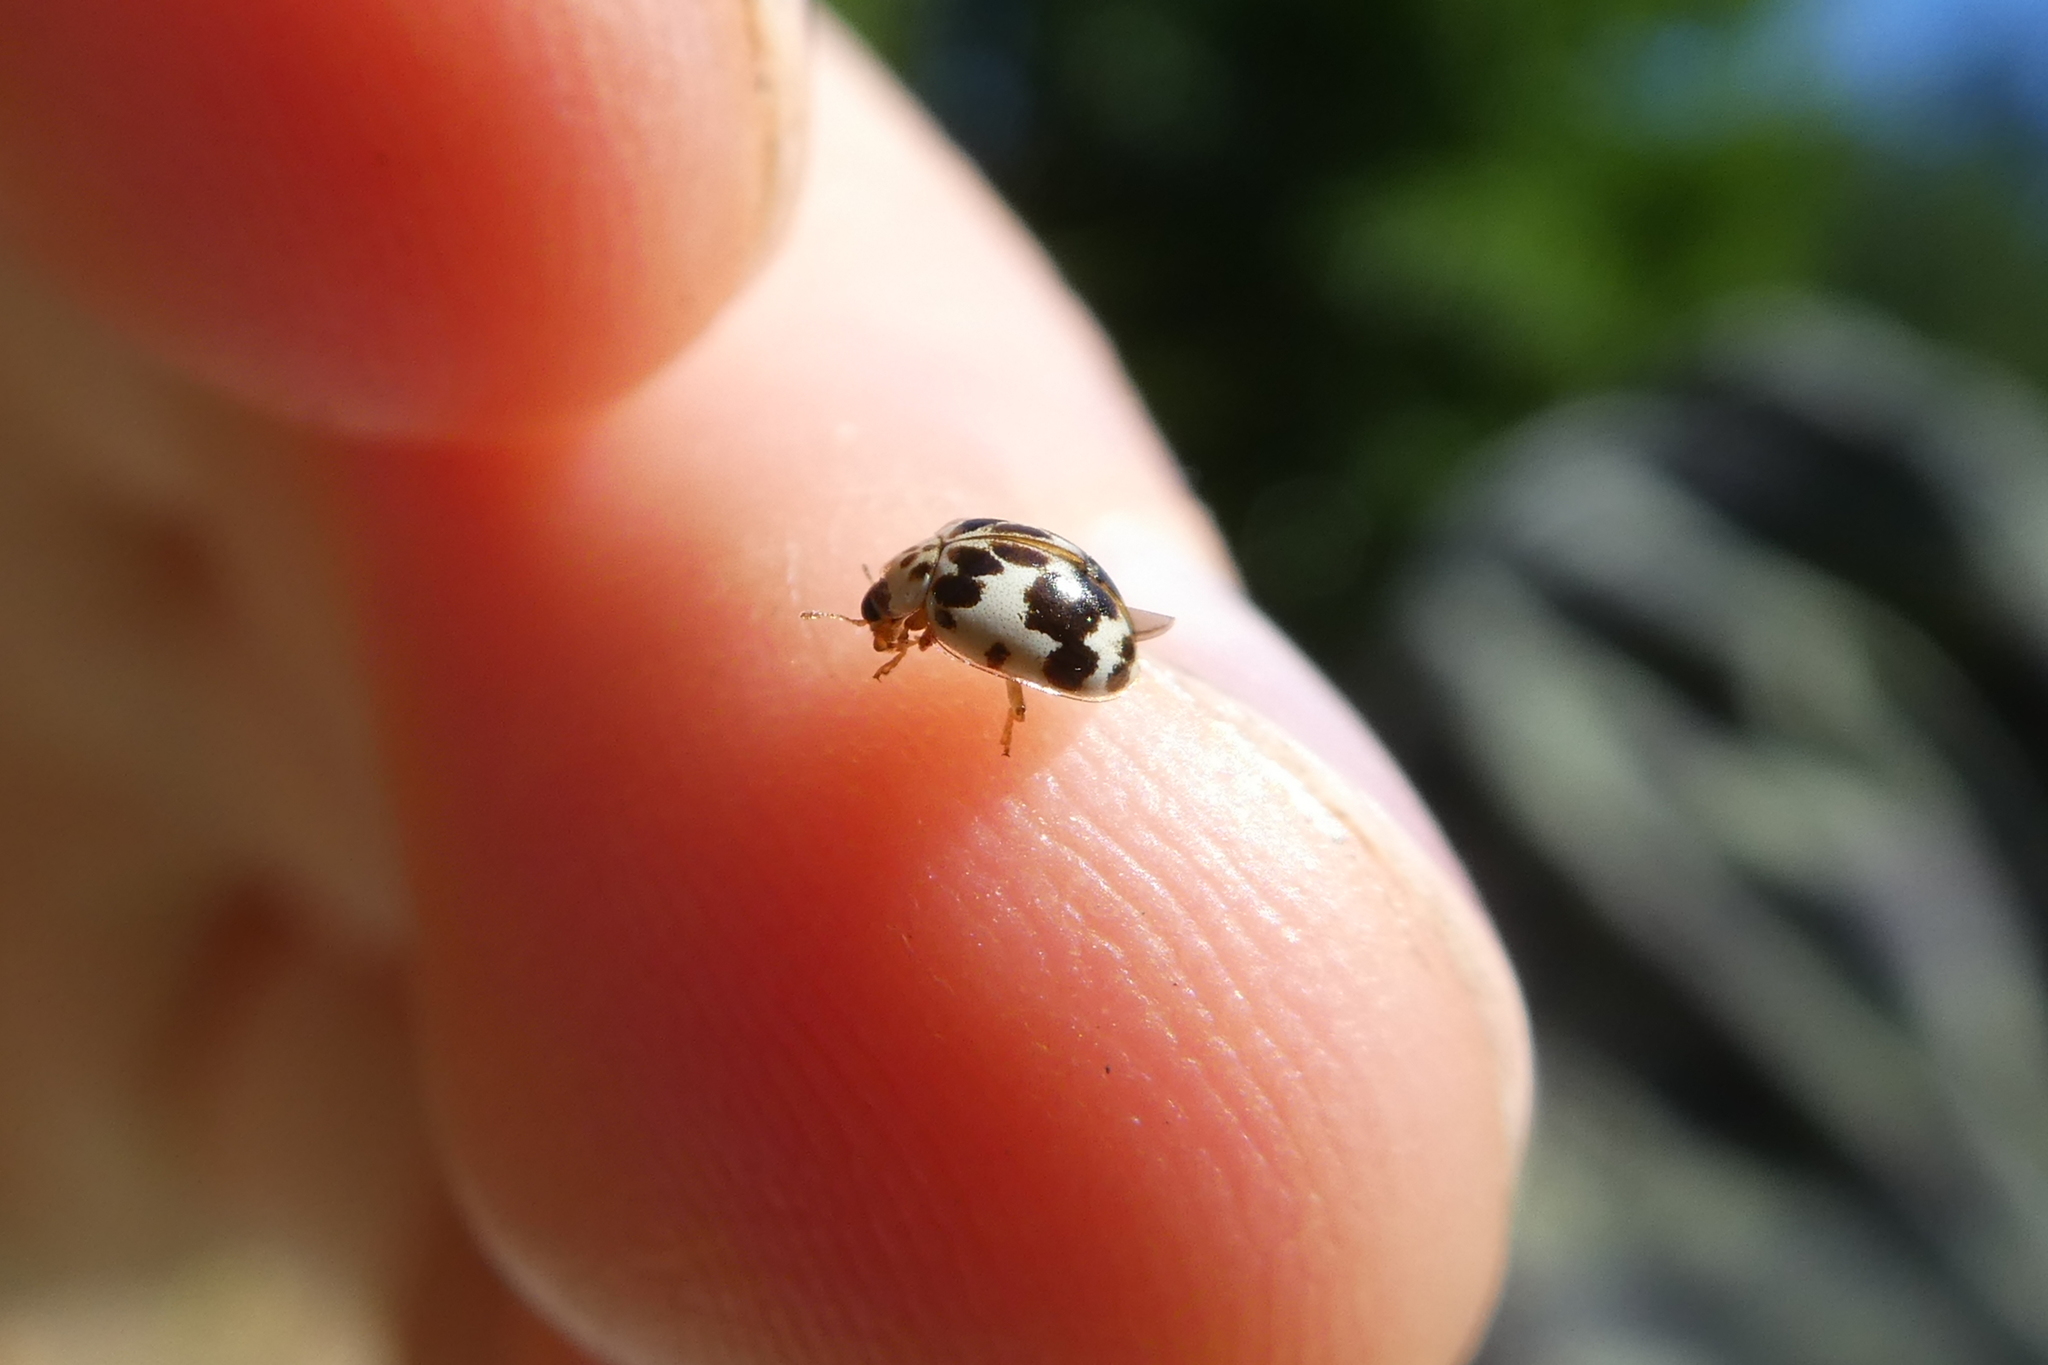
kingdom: Animalia
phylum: Arthropoda
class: Insecta
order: Coleoptera
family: Coccinellidae
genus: Psyllobora
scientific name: Psyllobora borealis
